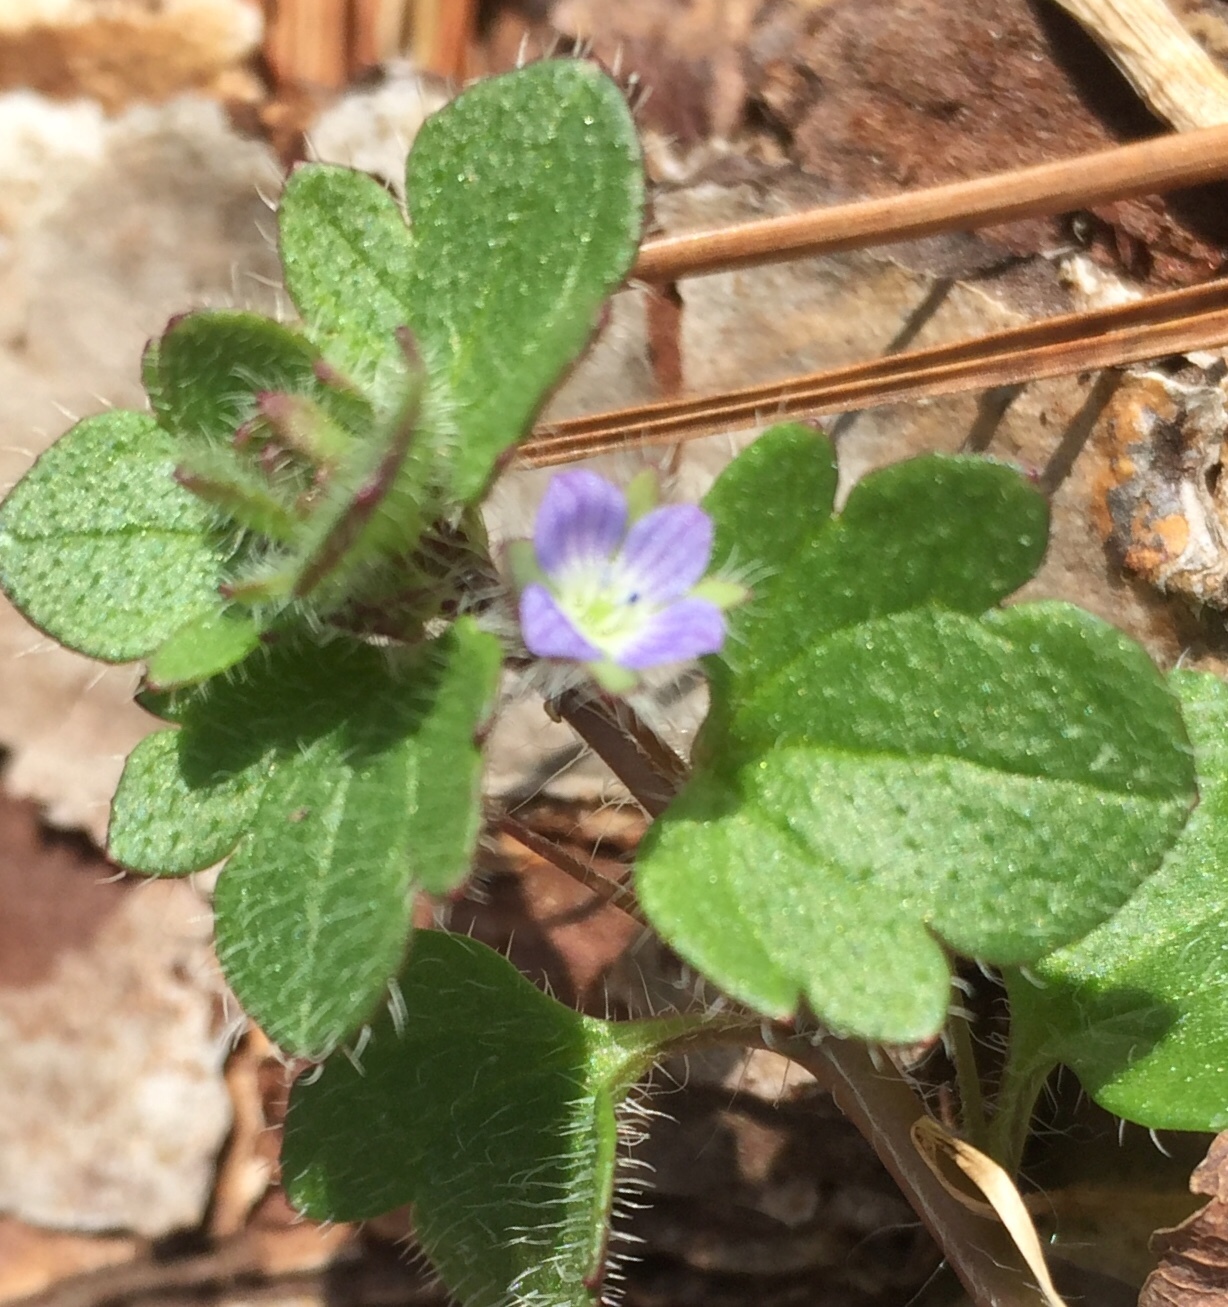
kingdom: Plantae
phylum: Tracheophyta
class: Magnoliopsida
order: Lamiales
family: Plantaginaceae
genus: Veronica
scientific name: Veronica hederifolia
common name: Ivy-leaved speedwell
